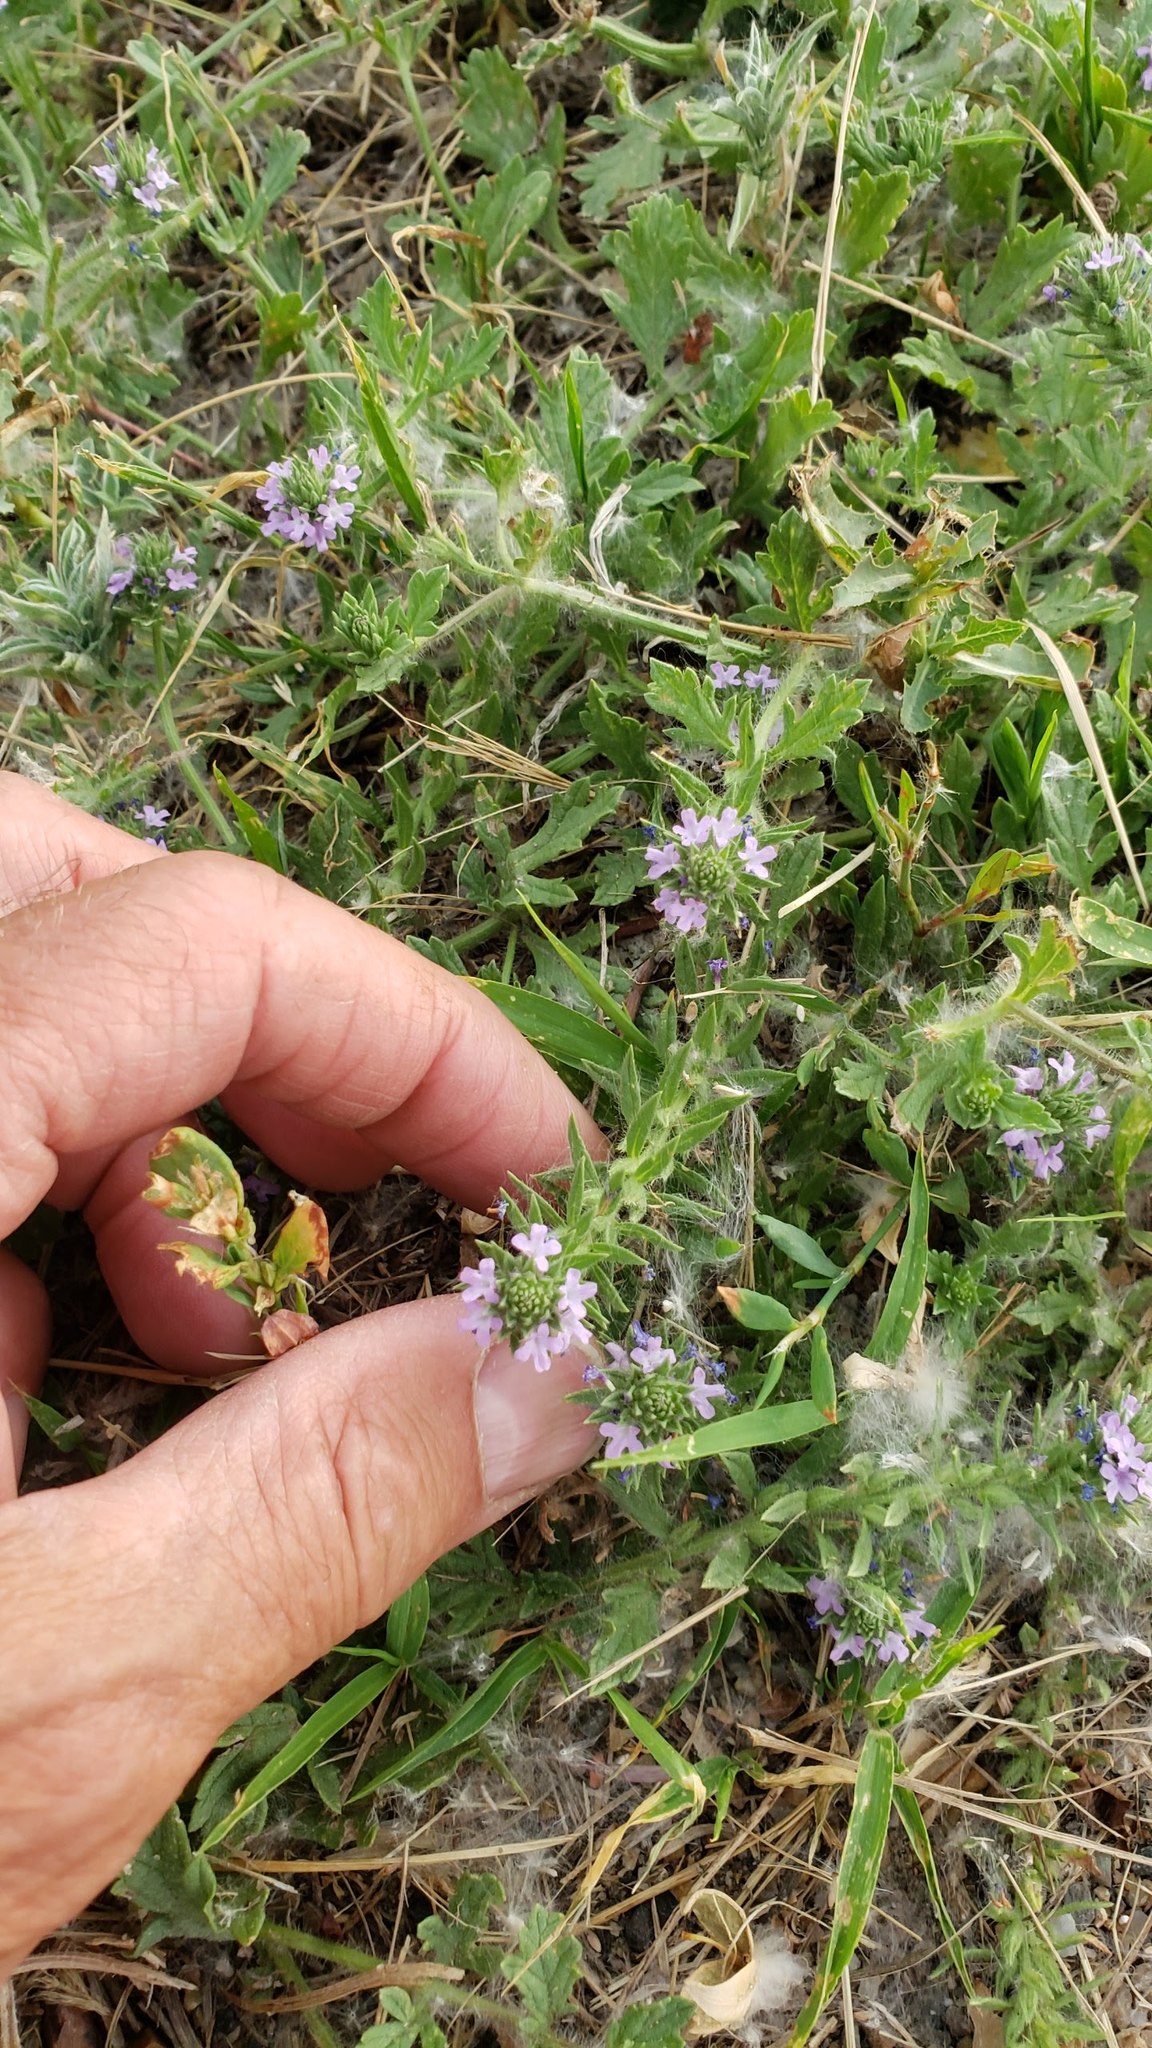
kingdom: Plantae
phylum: Tracheophyta
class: Magnoliopsida
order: Lamiales
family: Verbenaceae
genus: Verbena
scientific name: Verbena bracteata
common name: Bracted vervain
